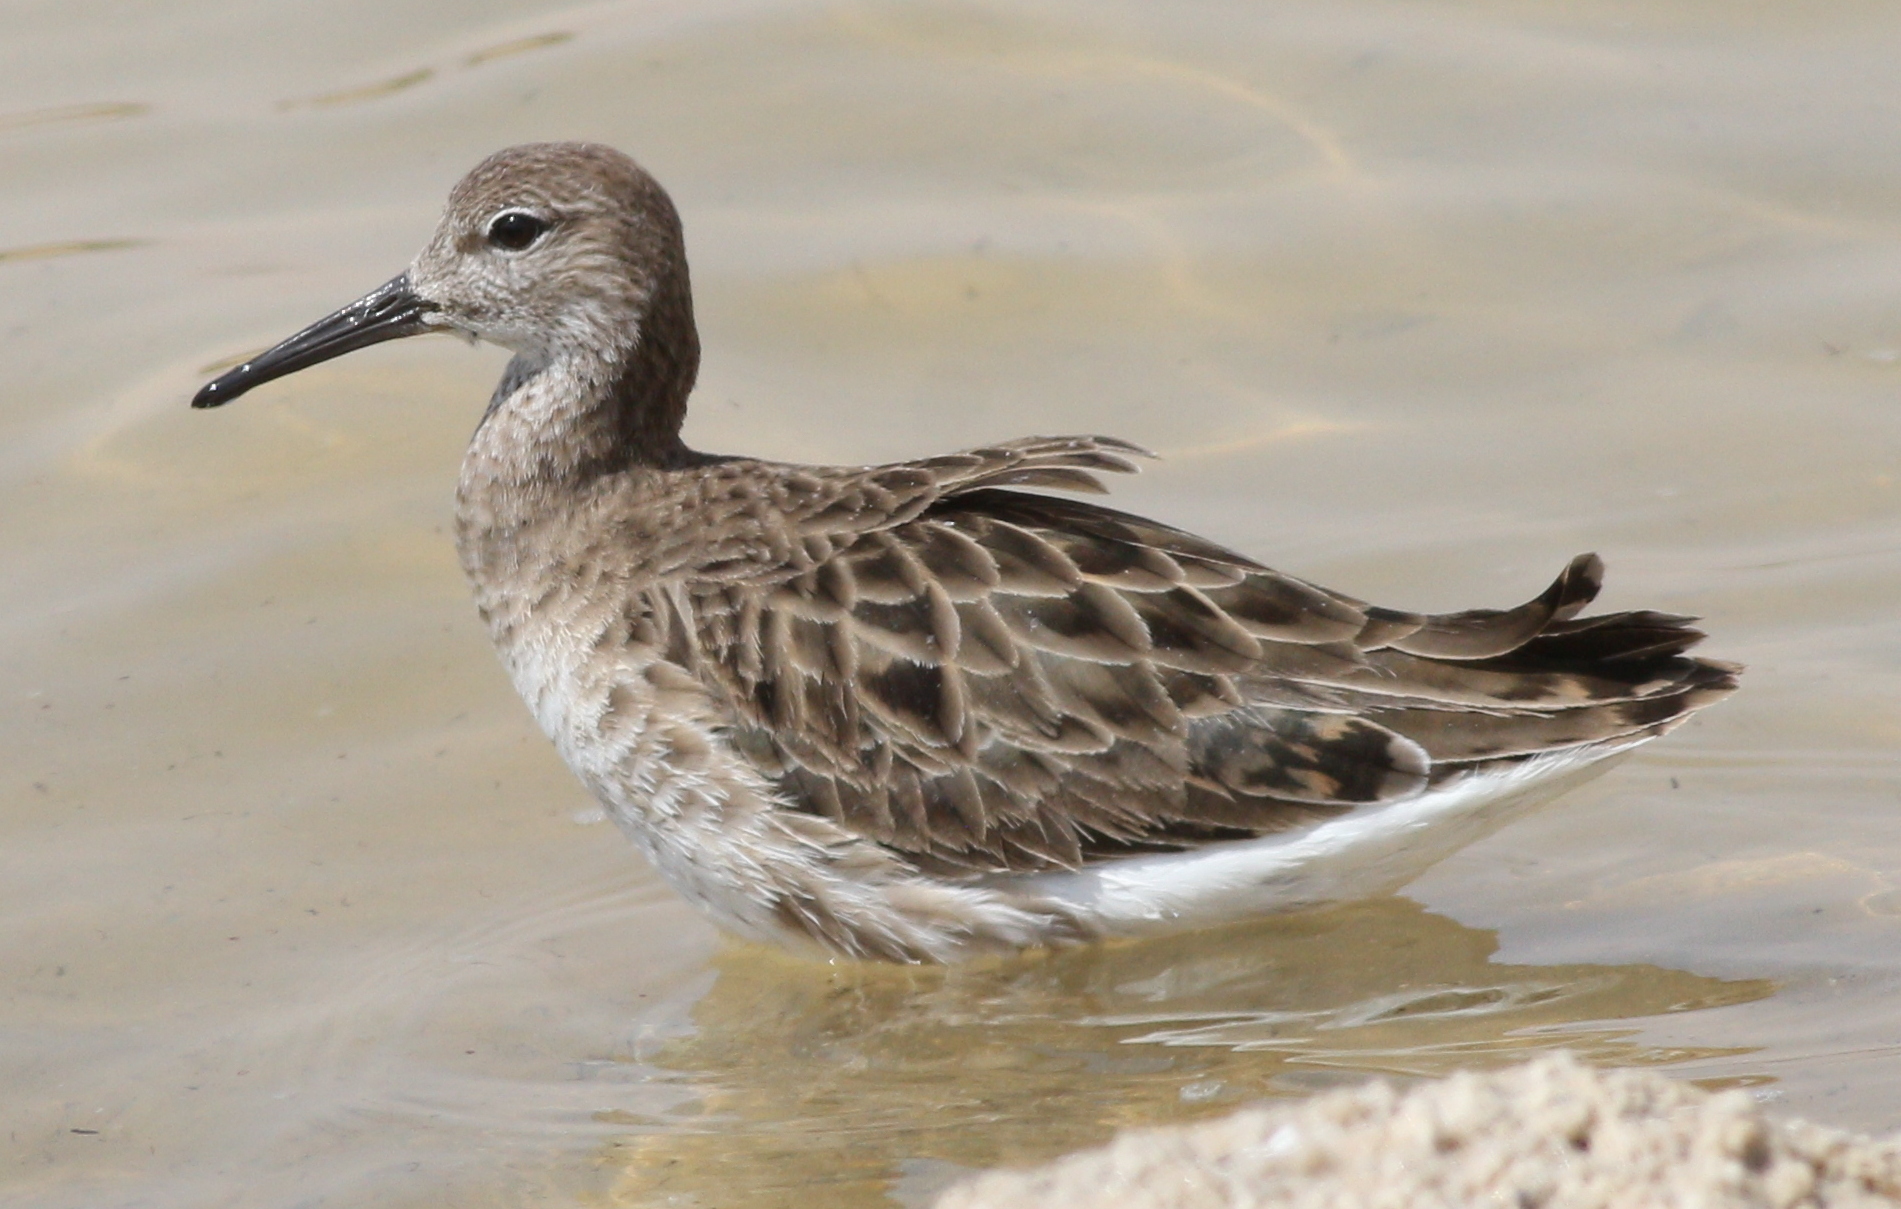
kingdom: Animalia
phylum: Chordata
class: Aves
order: Charadriiformes
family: Scolopacidae
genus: Calidris
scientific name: Calidris pugnax
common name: Ruff
